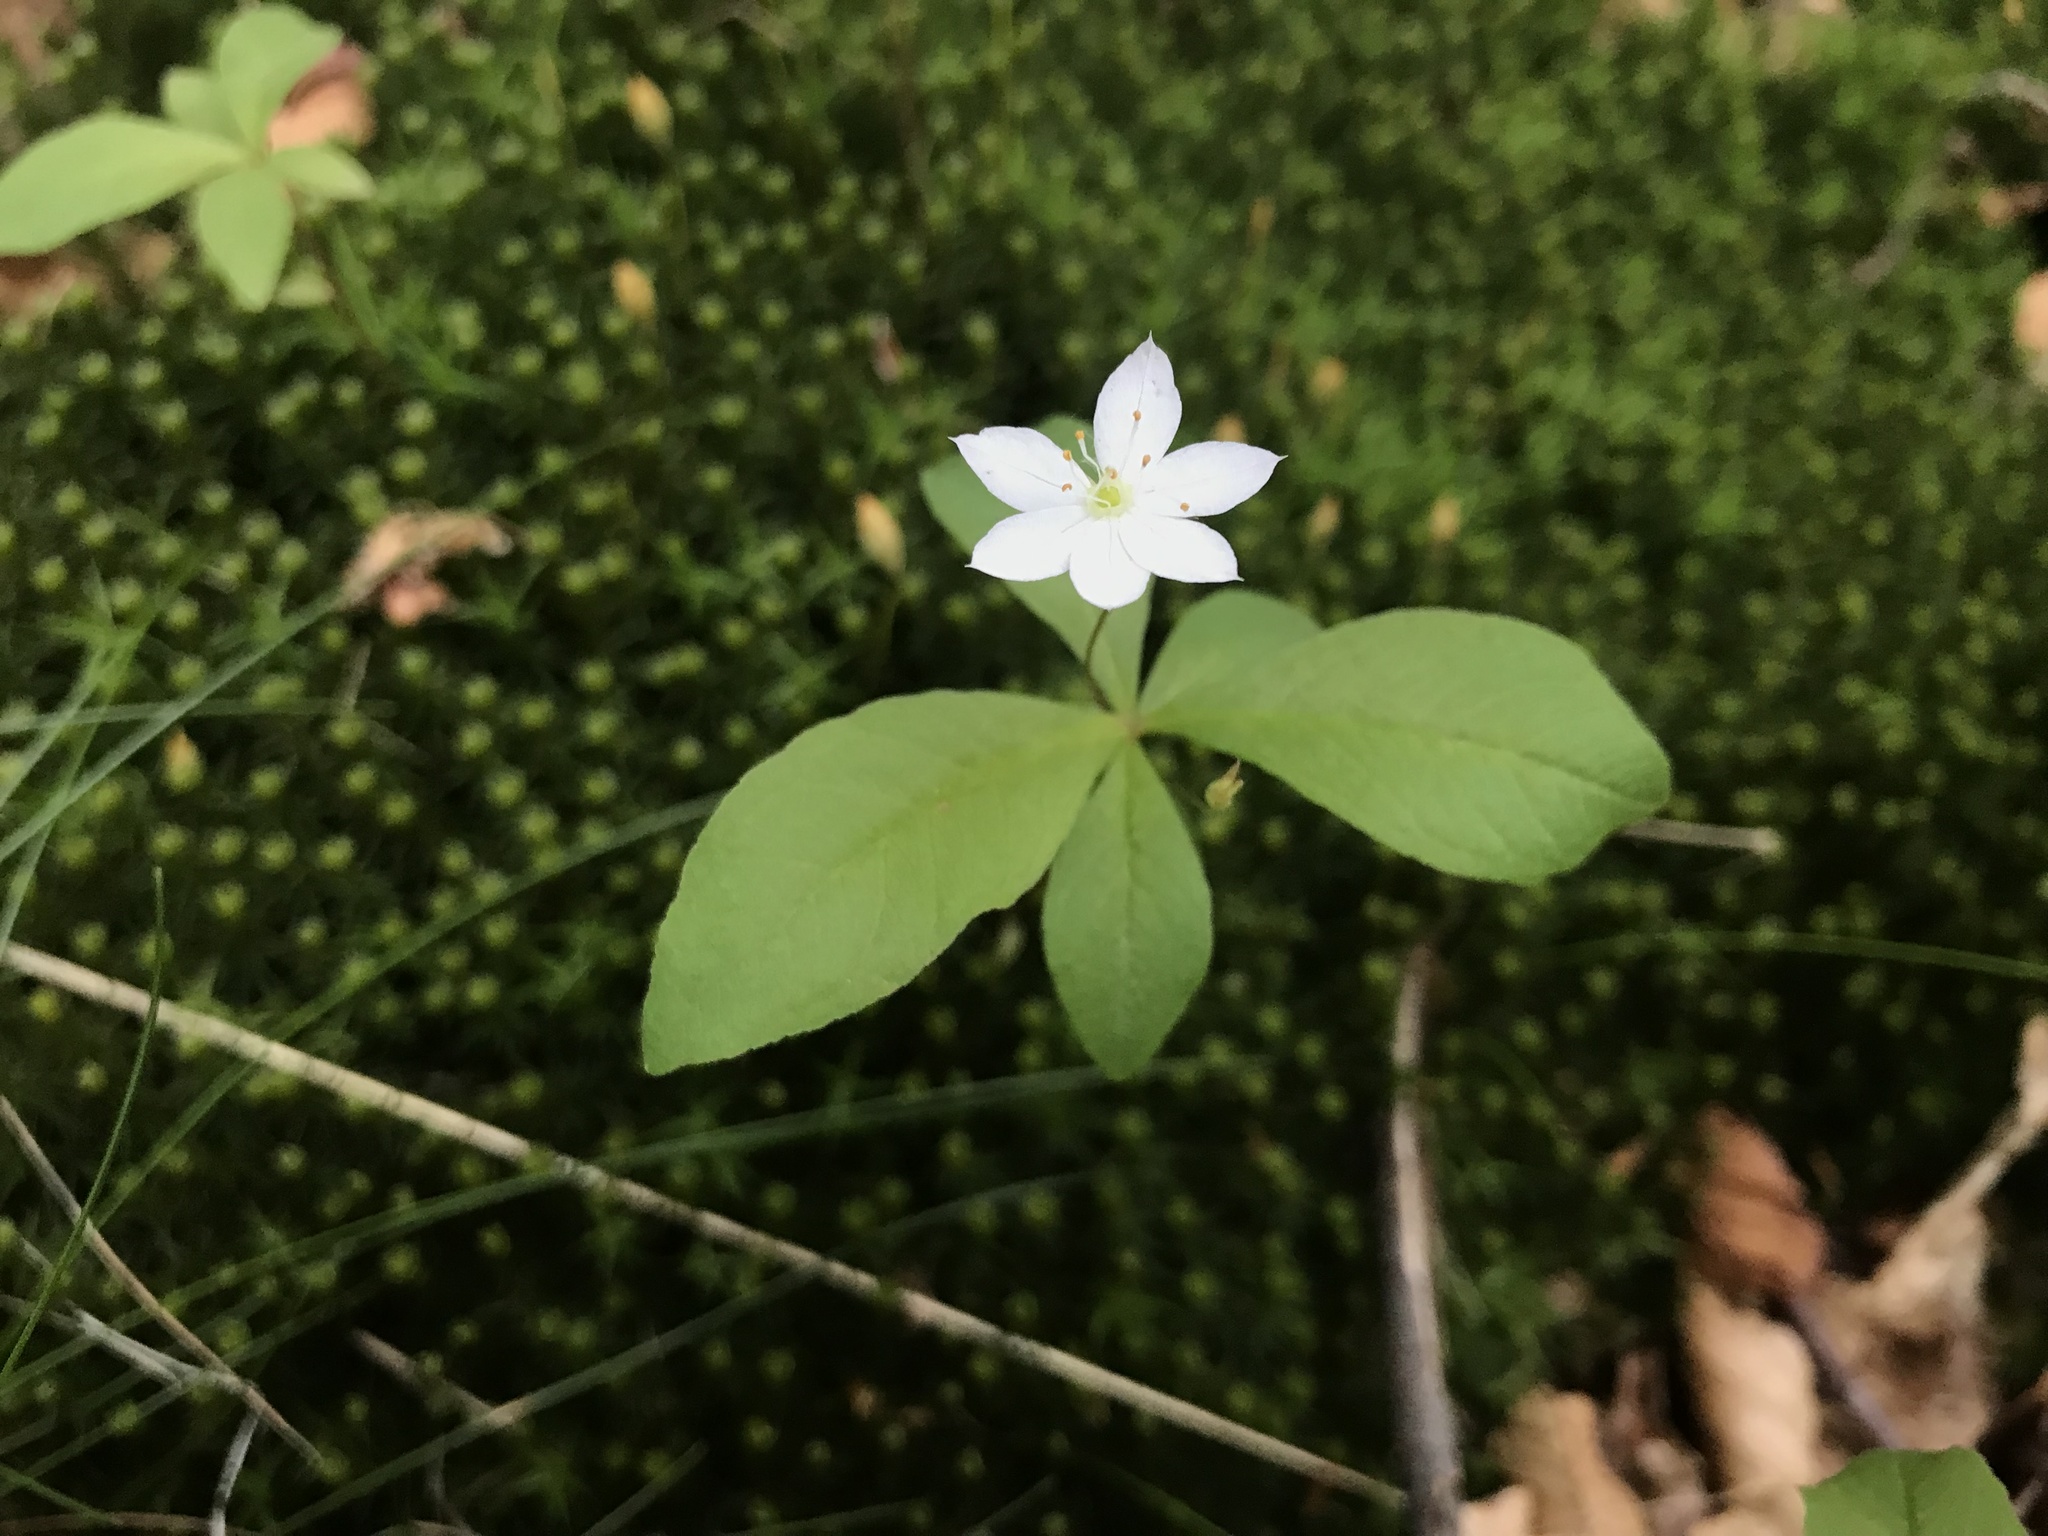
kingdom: Plantae
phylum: Tracheophyta
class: Magnoliopsida
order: Ericales
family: Primulaceae
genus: Lysimachia
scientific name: Lysimachia europaea
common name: Arctic starflower
